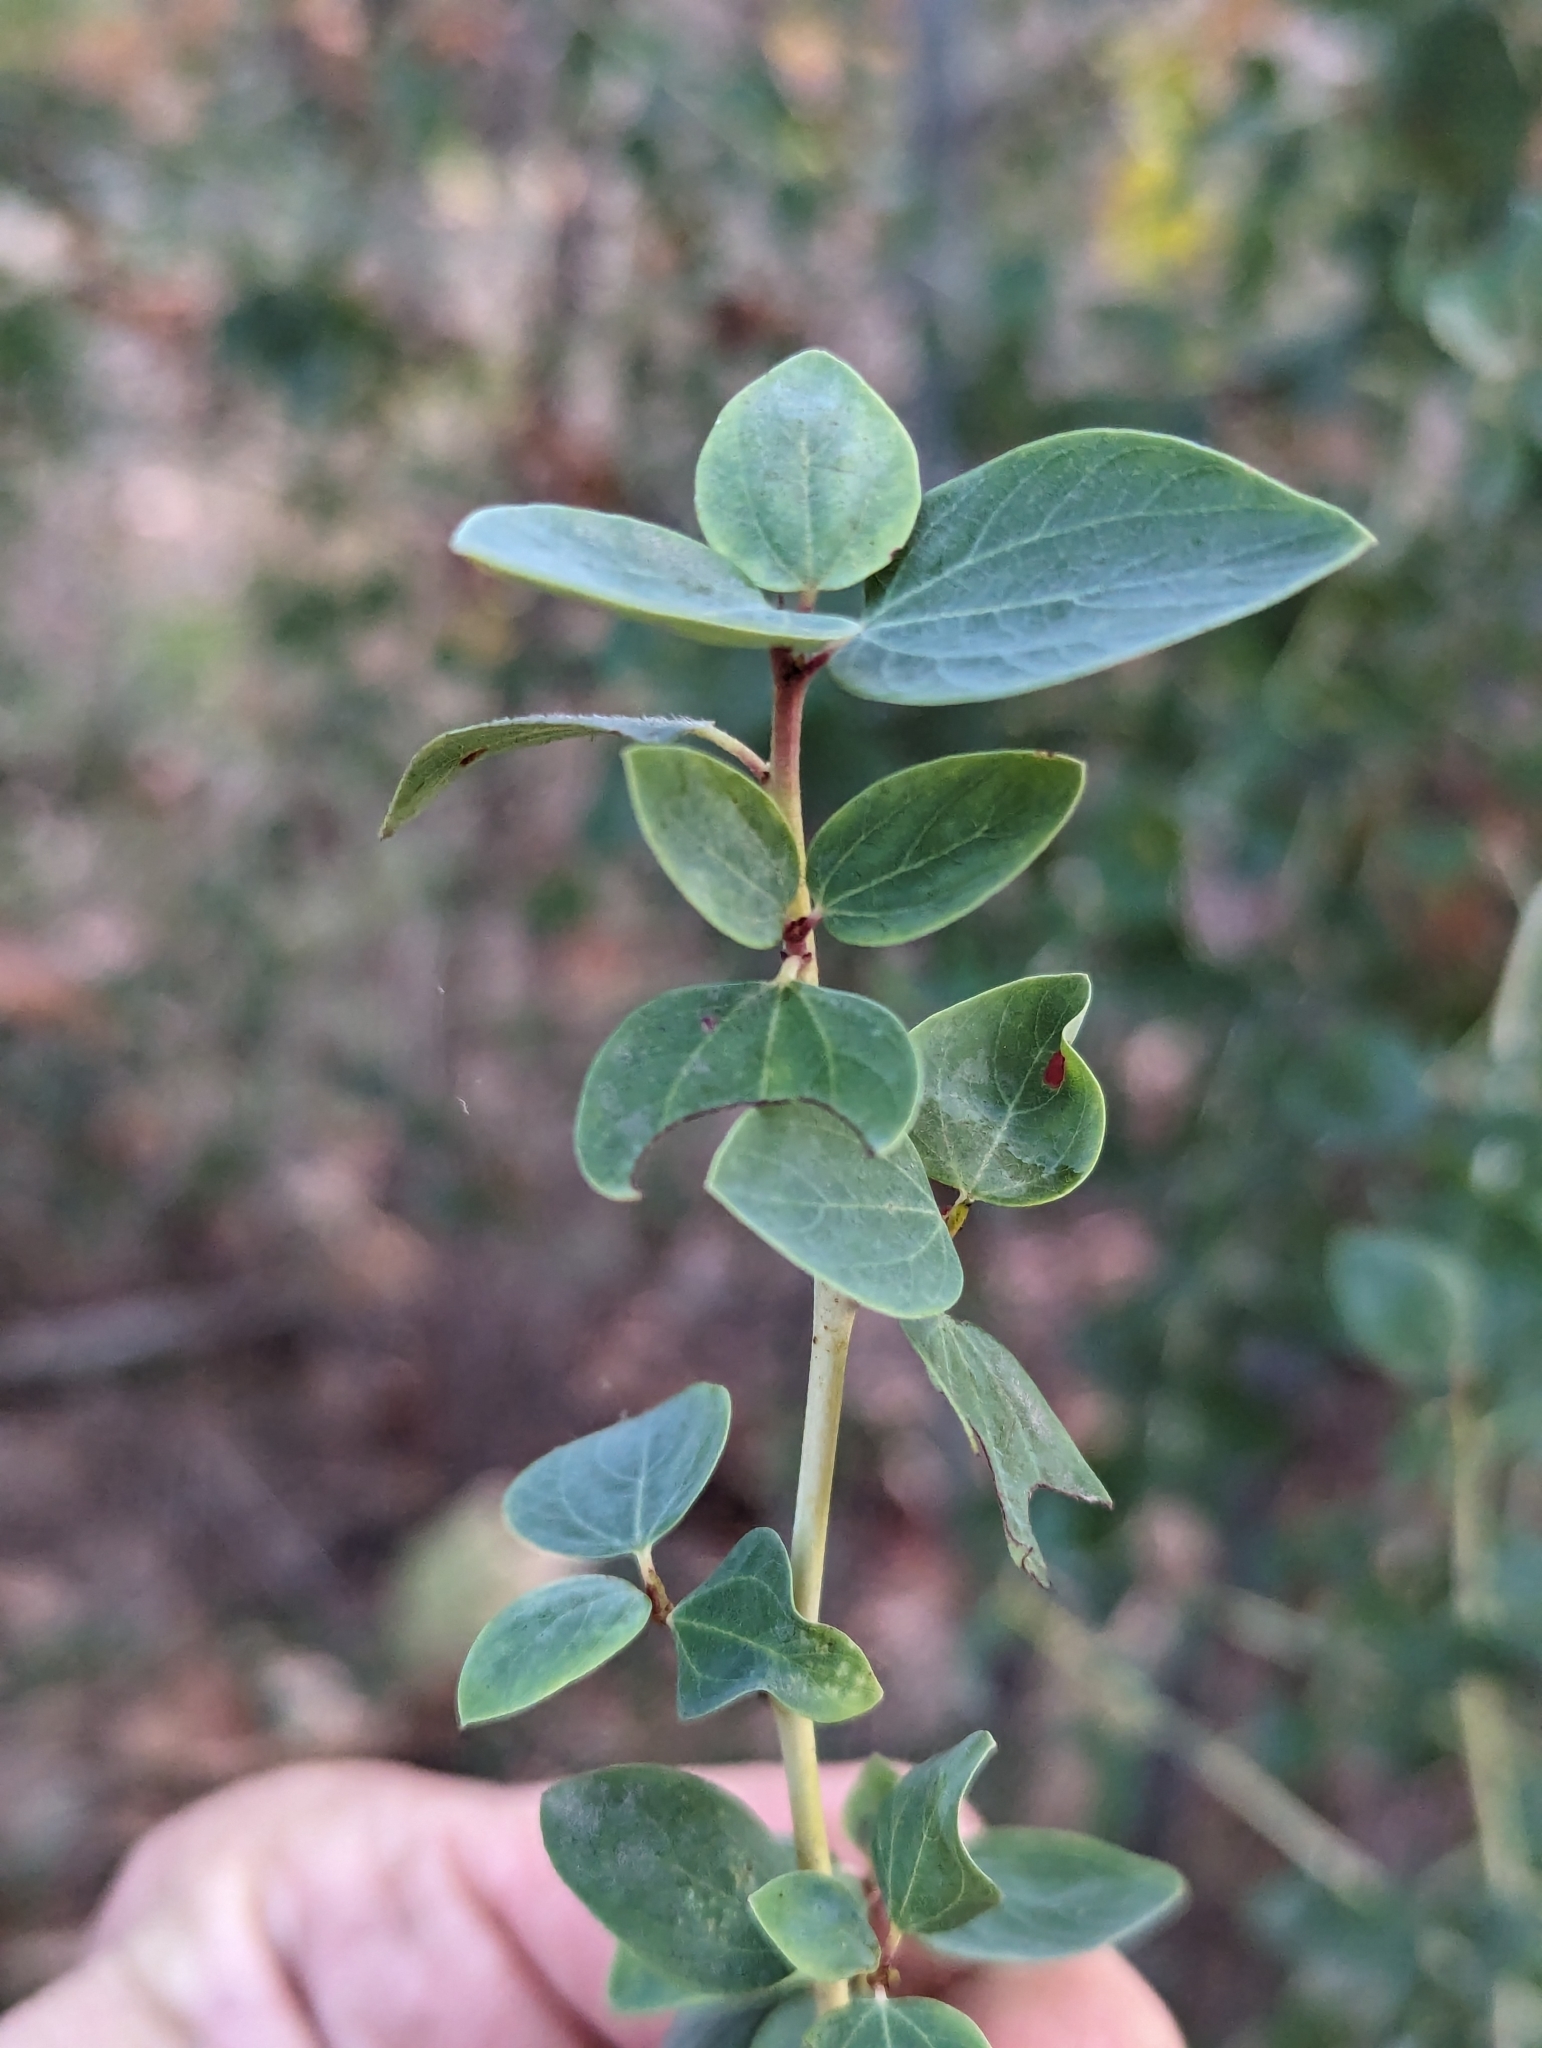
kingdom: Plantae
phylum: Tracheophyta
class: Magnoliopsida
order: Rosales
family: Rhamnaceae
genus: Ceanothus
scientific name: Ceanothus leucodermis
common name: Chaparral whitethorn
